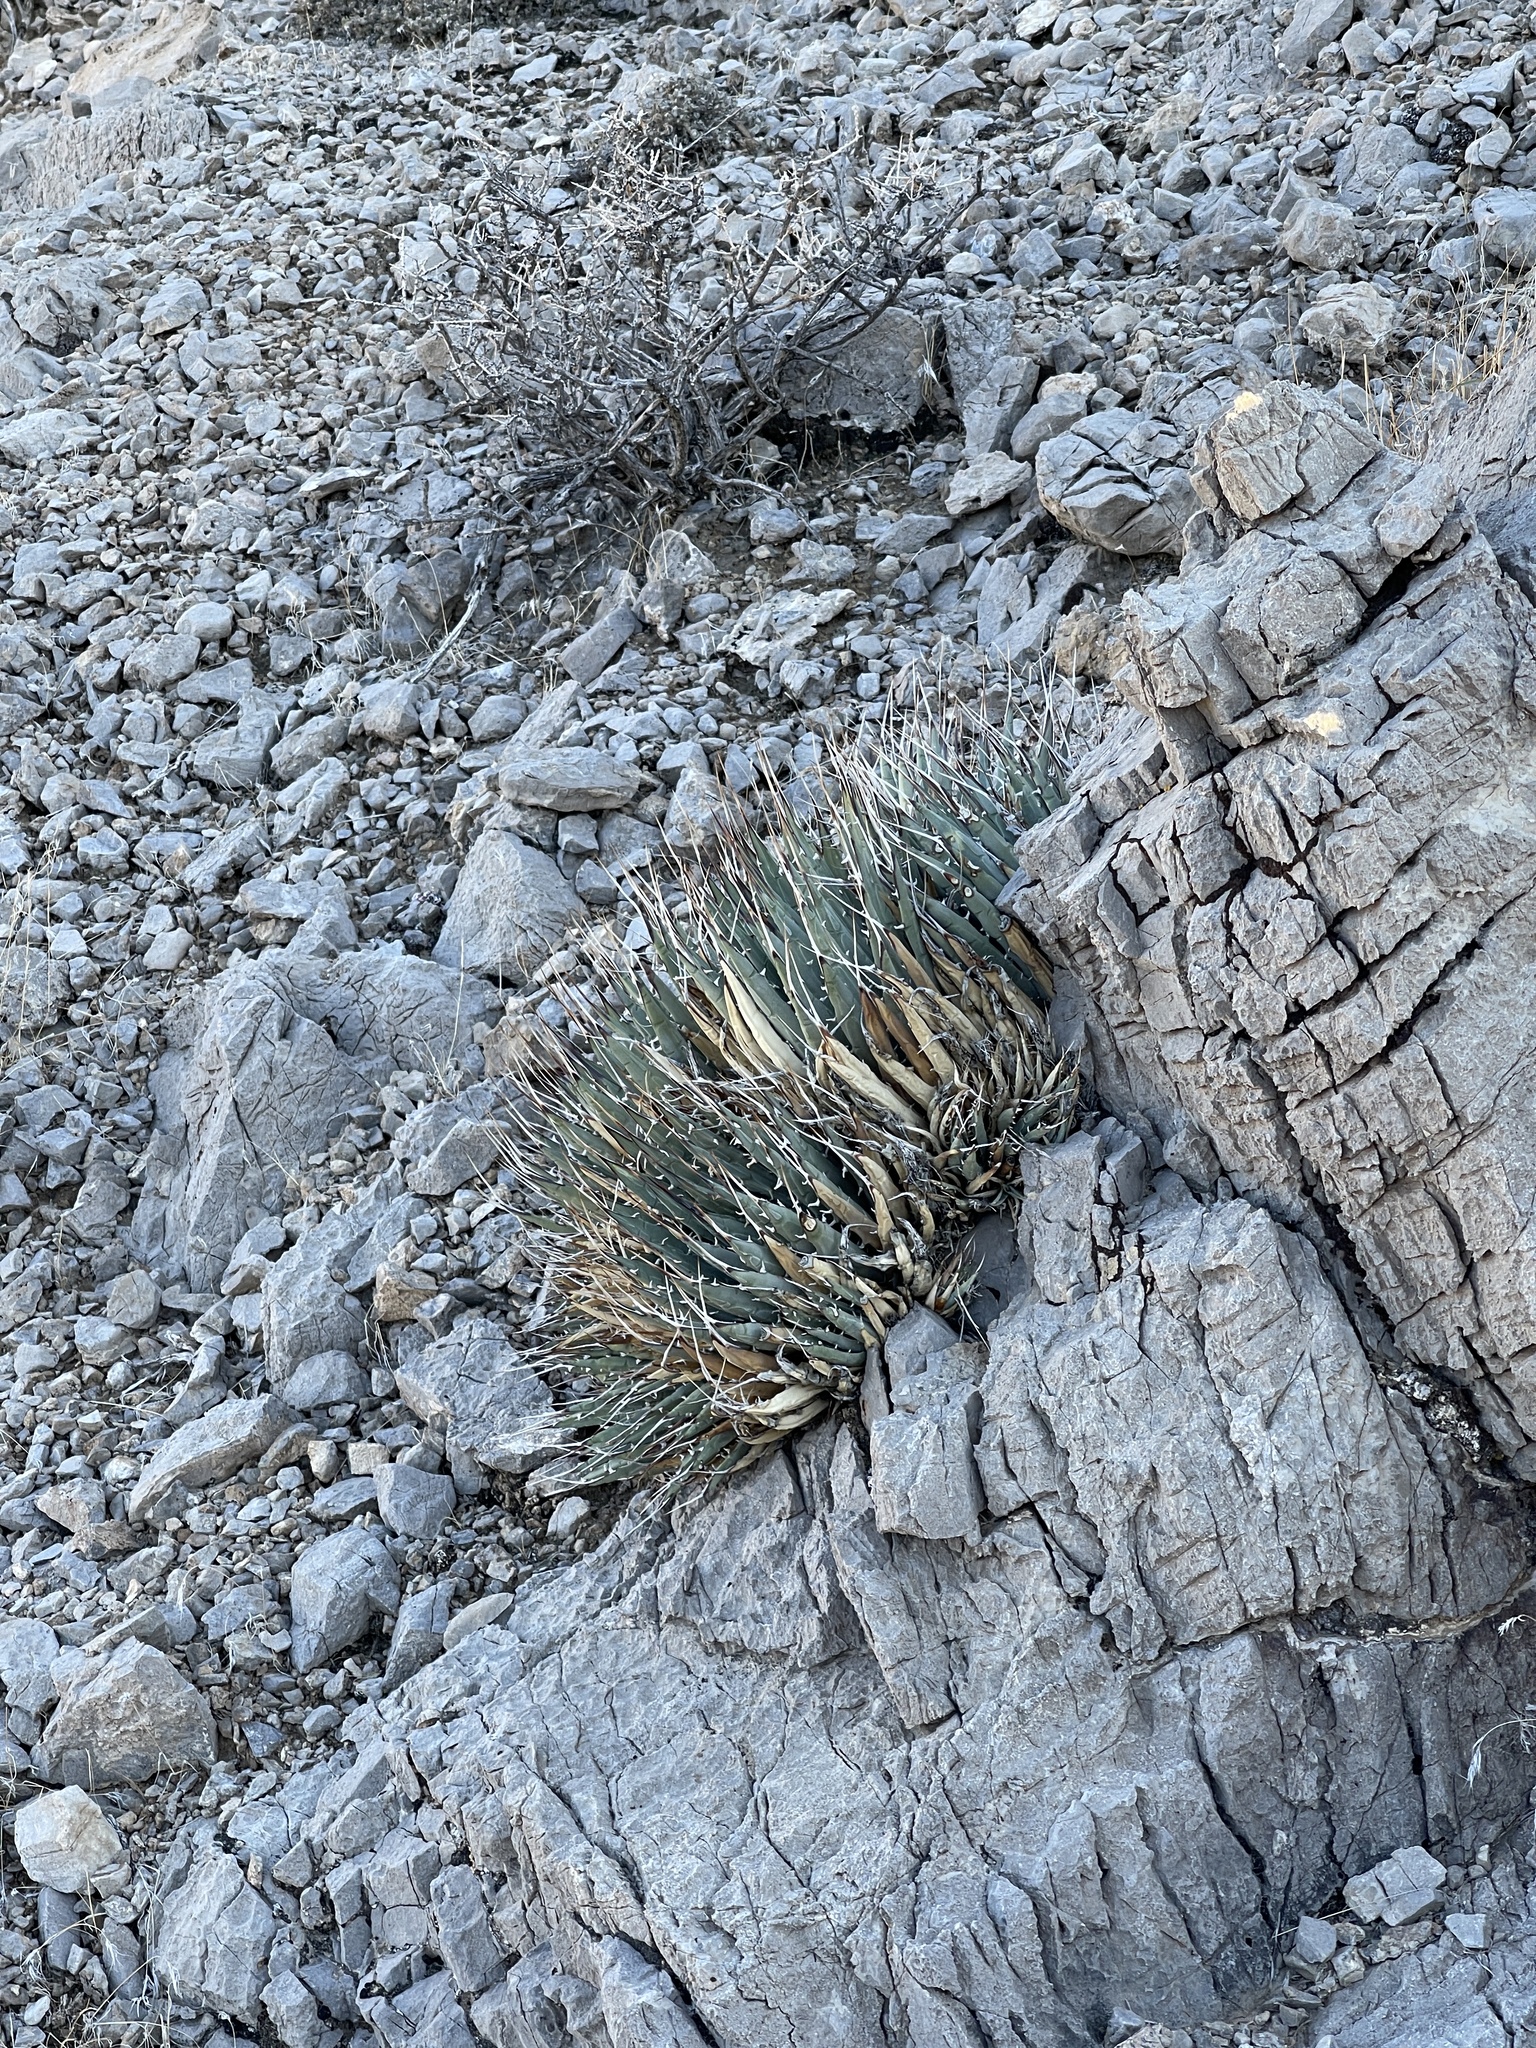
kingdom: Plantae
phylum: Tracheophyta
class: Liliopsida
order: Asparagales
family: Asparagaceae
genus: Agave
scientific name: Agave utahensis
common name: Utah agave
